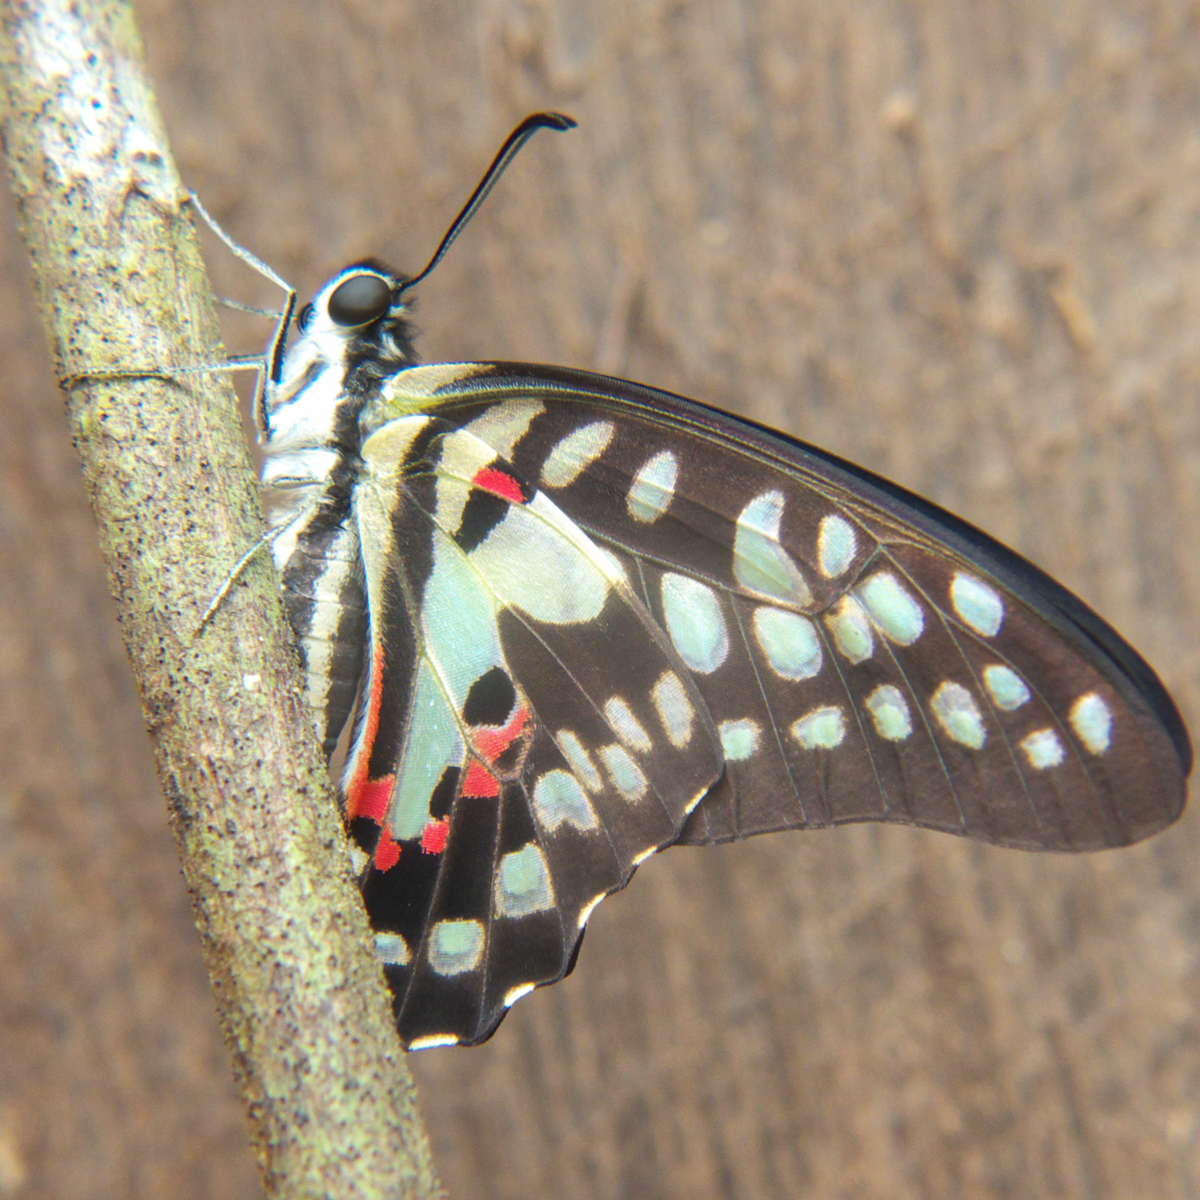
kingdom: Animalia
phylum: Arthropoda
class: Insecta
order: Lepidoptera
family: Papilionidae
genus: Graphium
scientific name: Graphium doson
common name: Common jay
